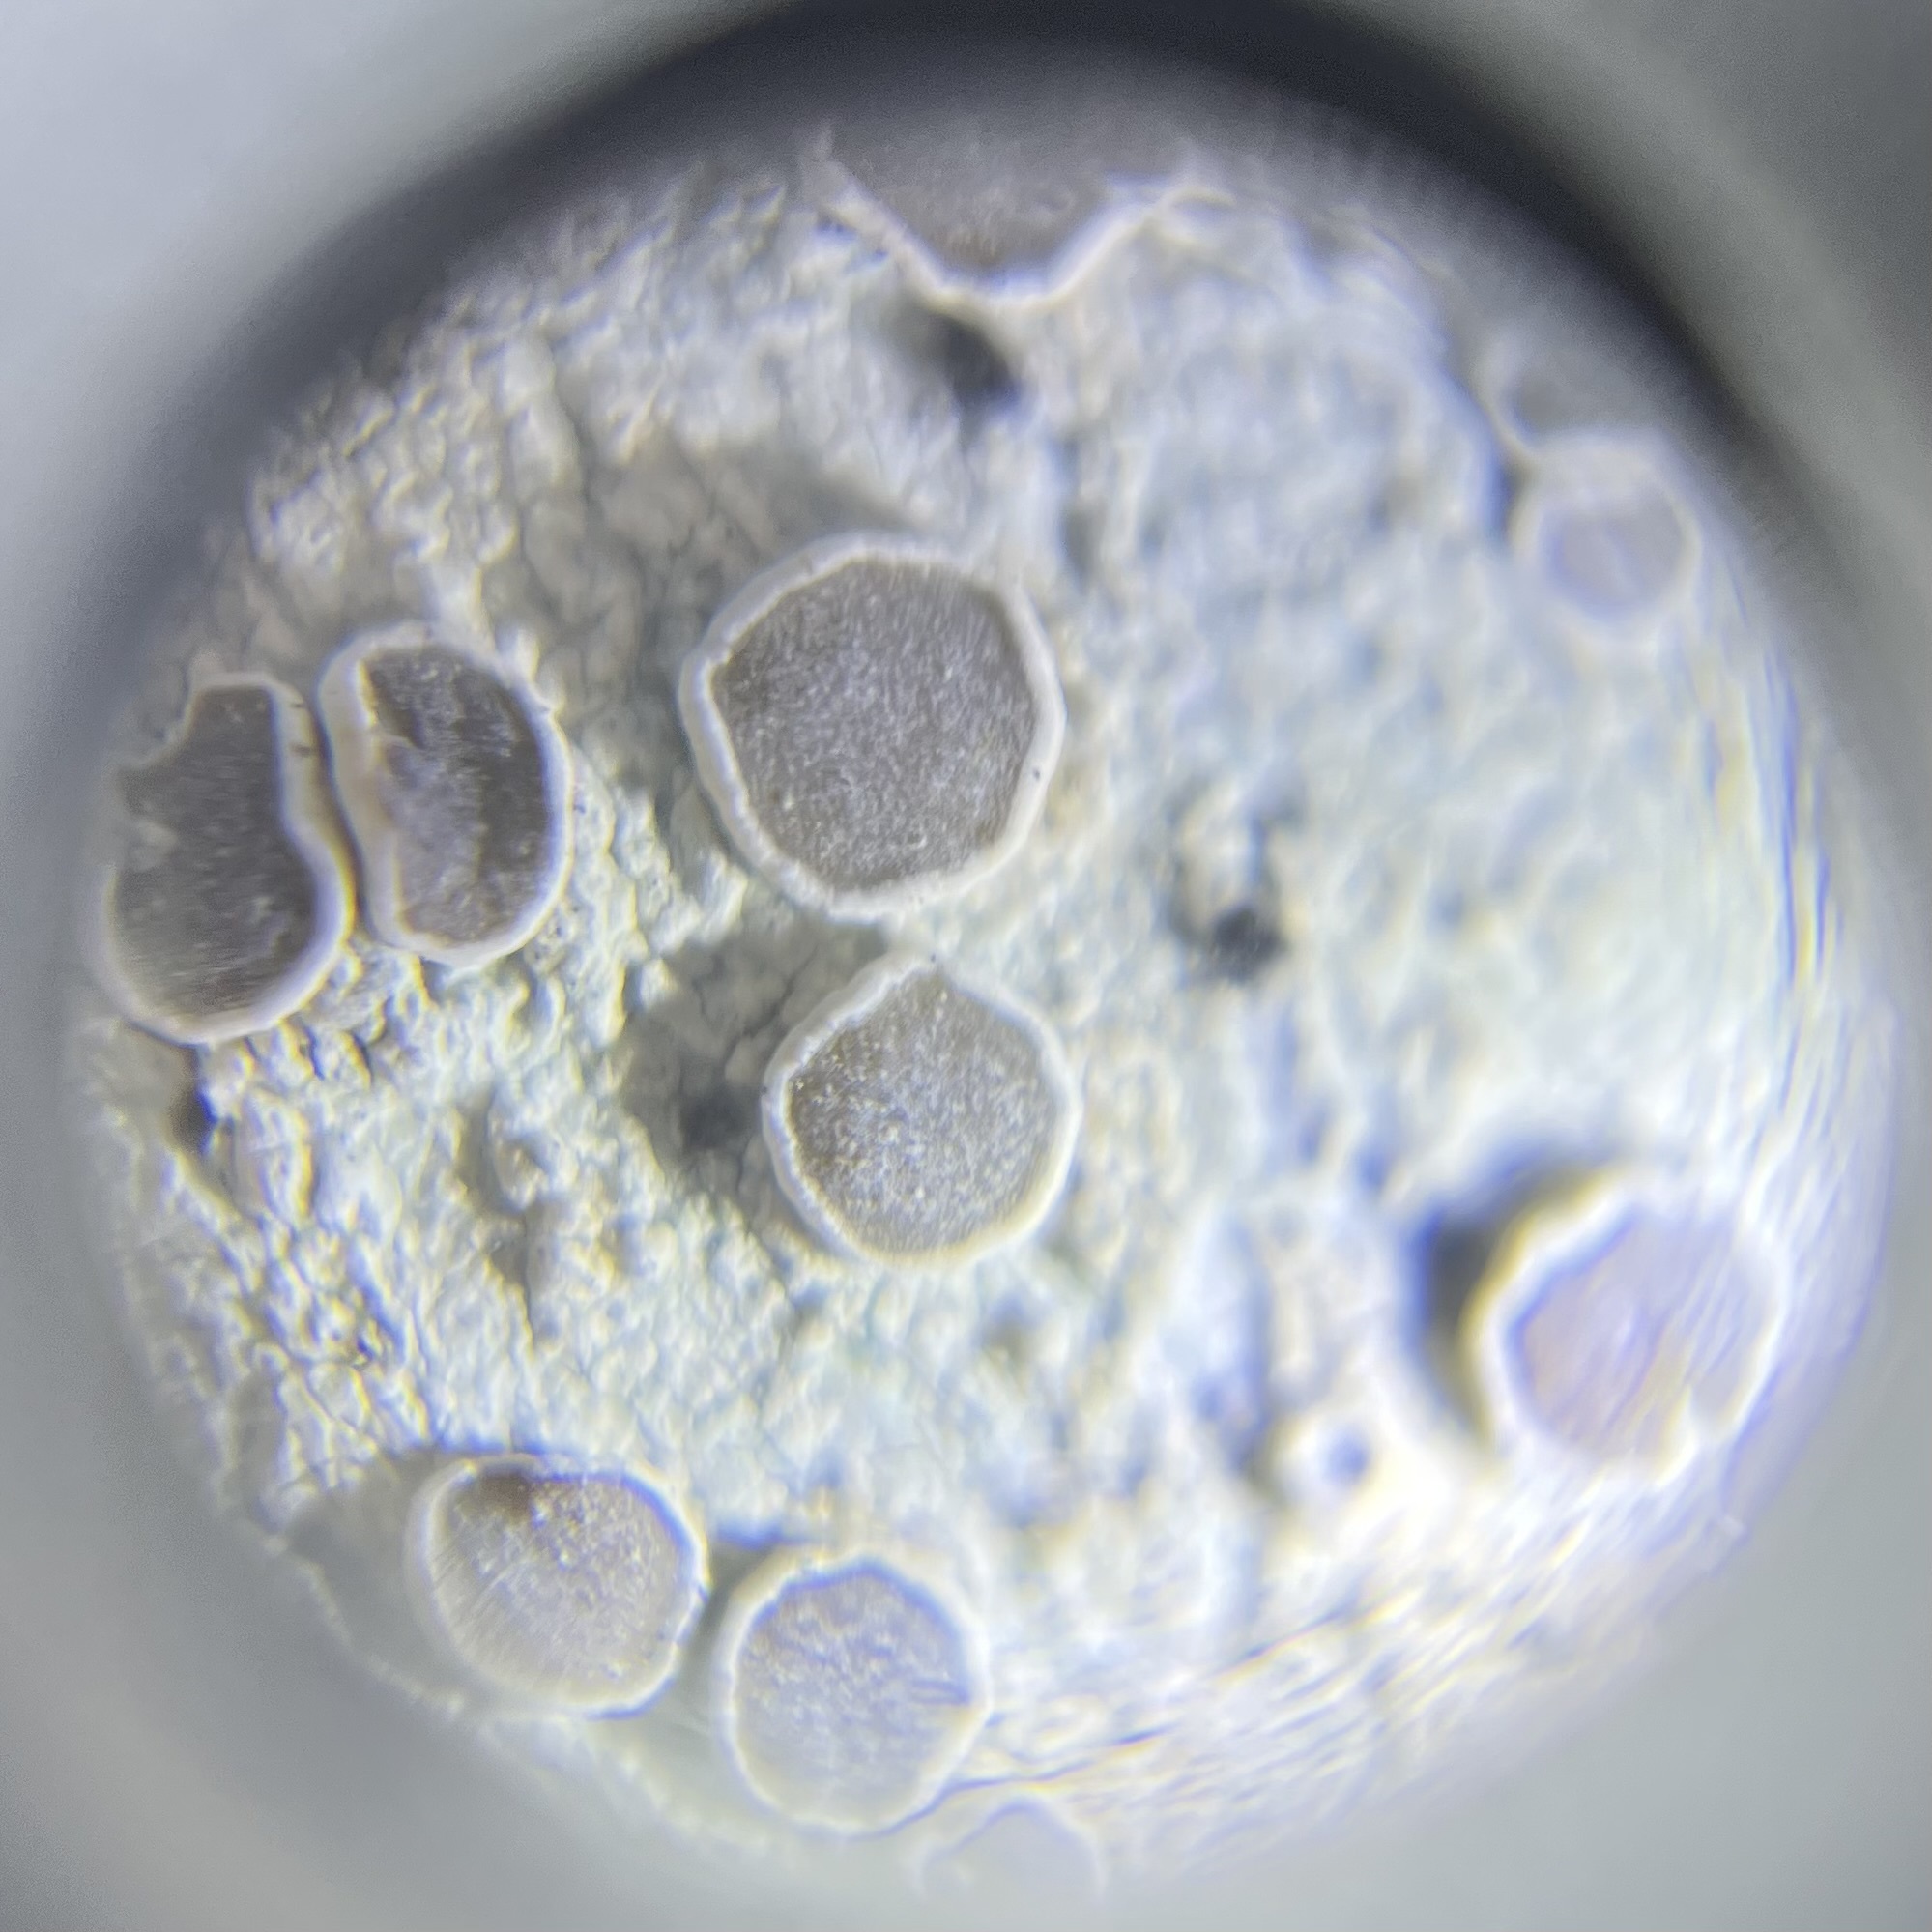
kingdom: Fungi
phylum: Ascomycota
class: Lecanoromycetes
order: Lecanorales
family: Lecanoraceae
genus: Lecanora
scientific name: Lecanora protervula
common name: Lesser dust my discs
